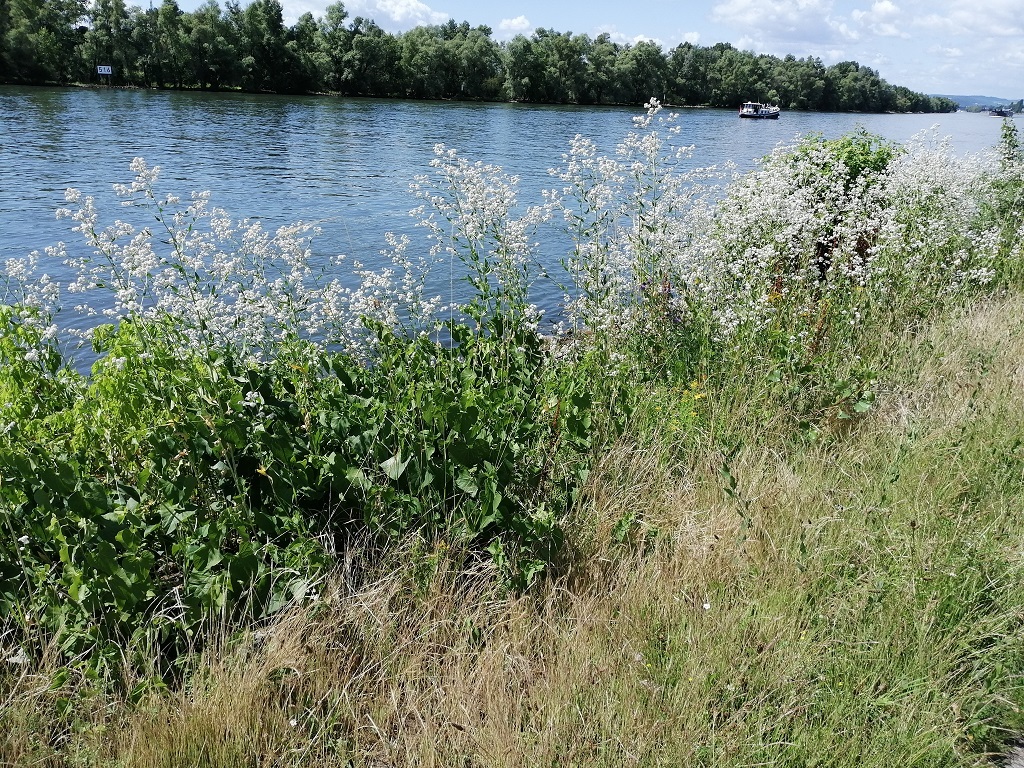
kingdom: Plantae
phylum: Tracheophyta
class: Magnoliopsida
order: Brassicales
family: Brassicaceae
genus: Lepidium
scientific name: Lepidium latifolium
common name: Dittander
